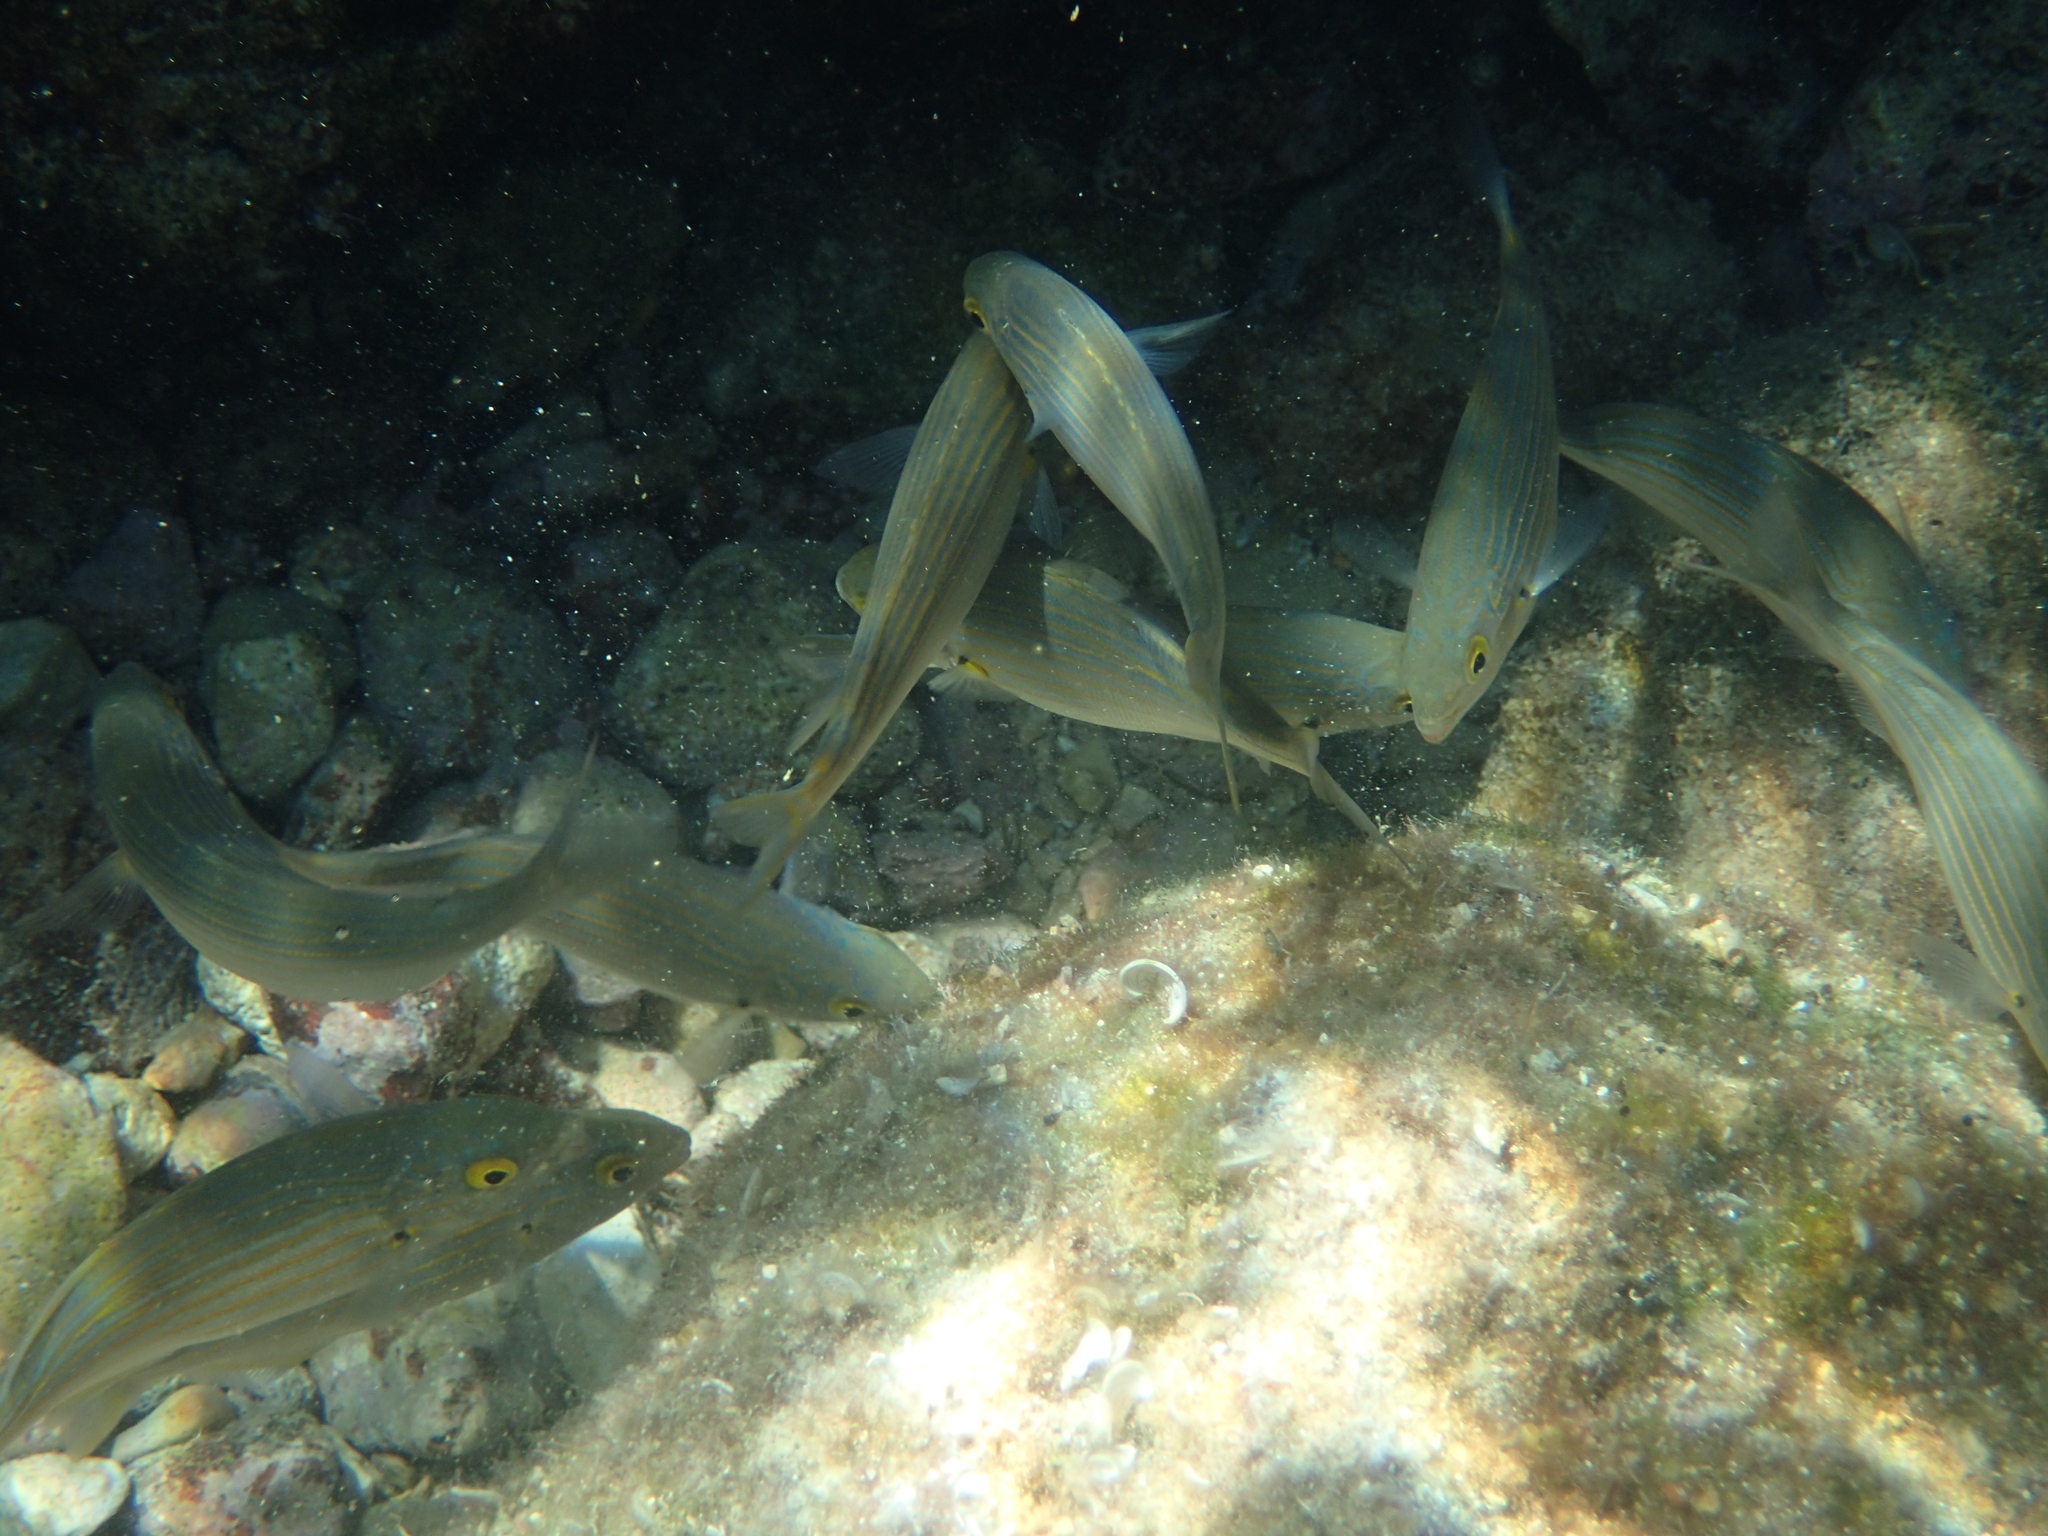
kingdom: Animalia
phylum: Chordata
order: Perciformes
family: Sparidae
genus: Sarpa
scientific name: Sarpa salpa
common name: Salema
